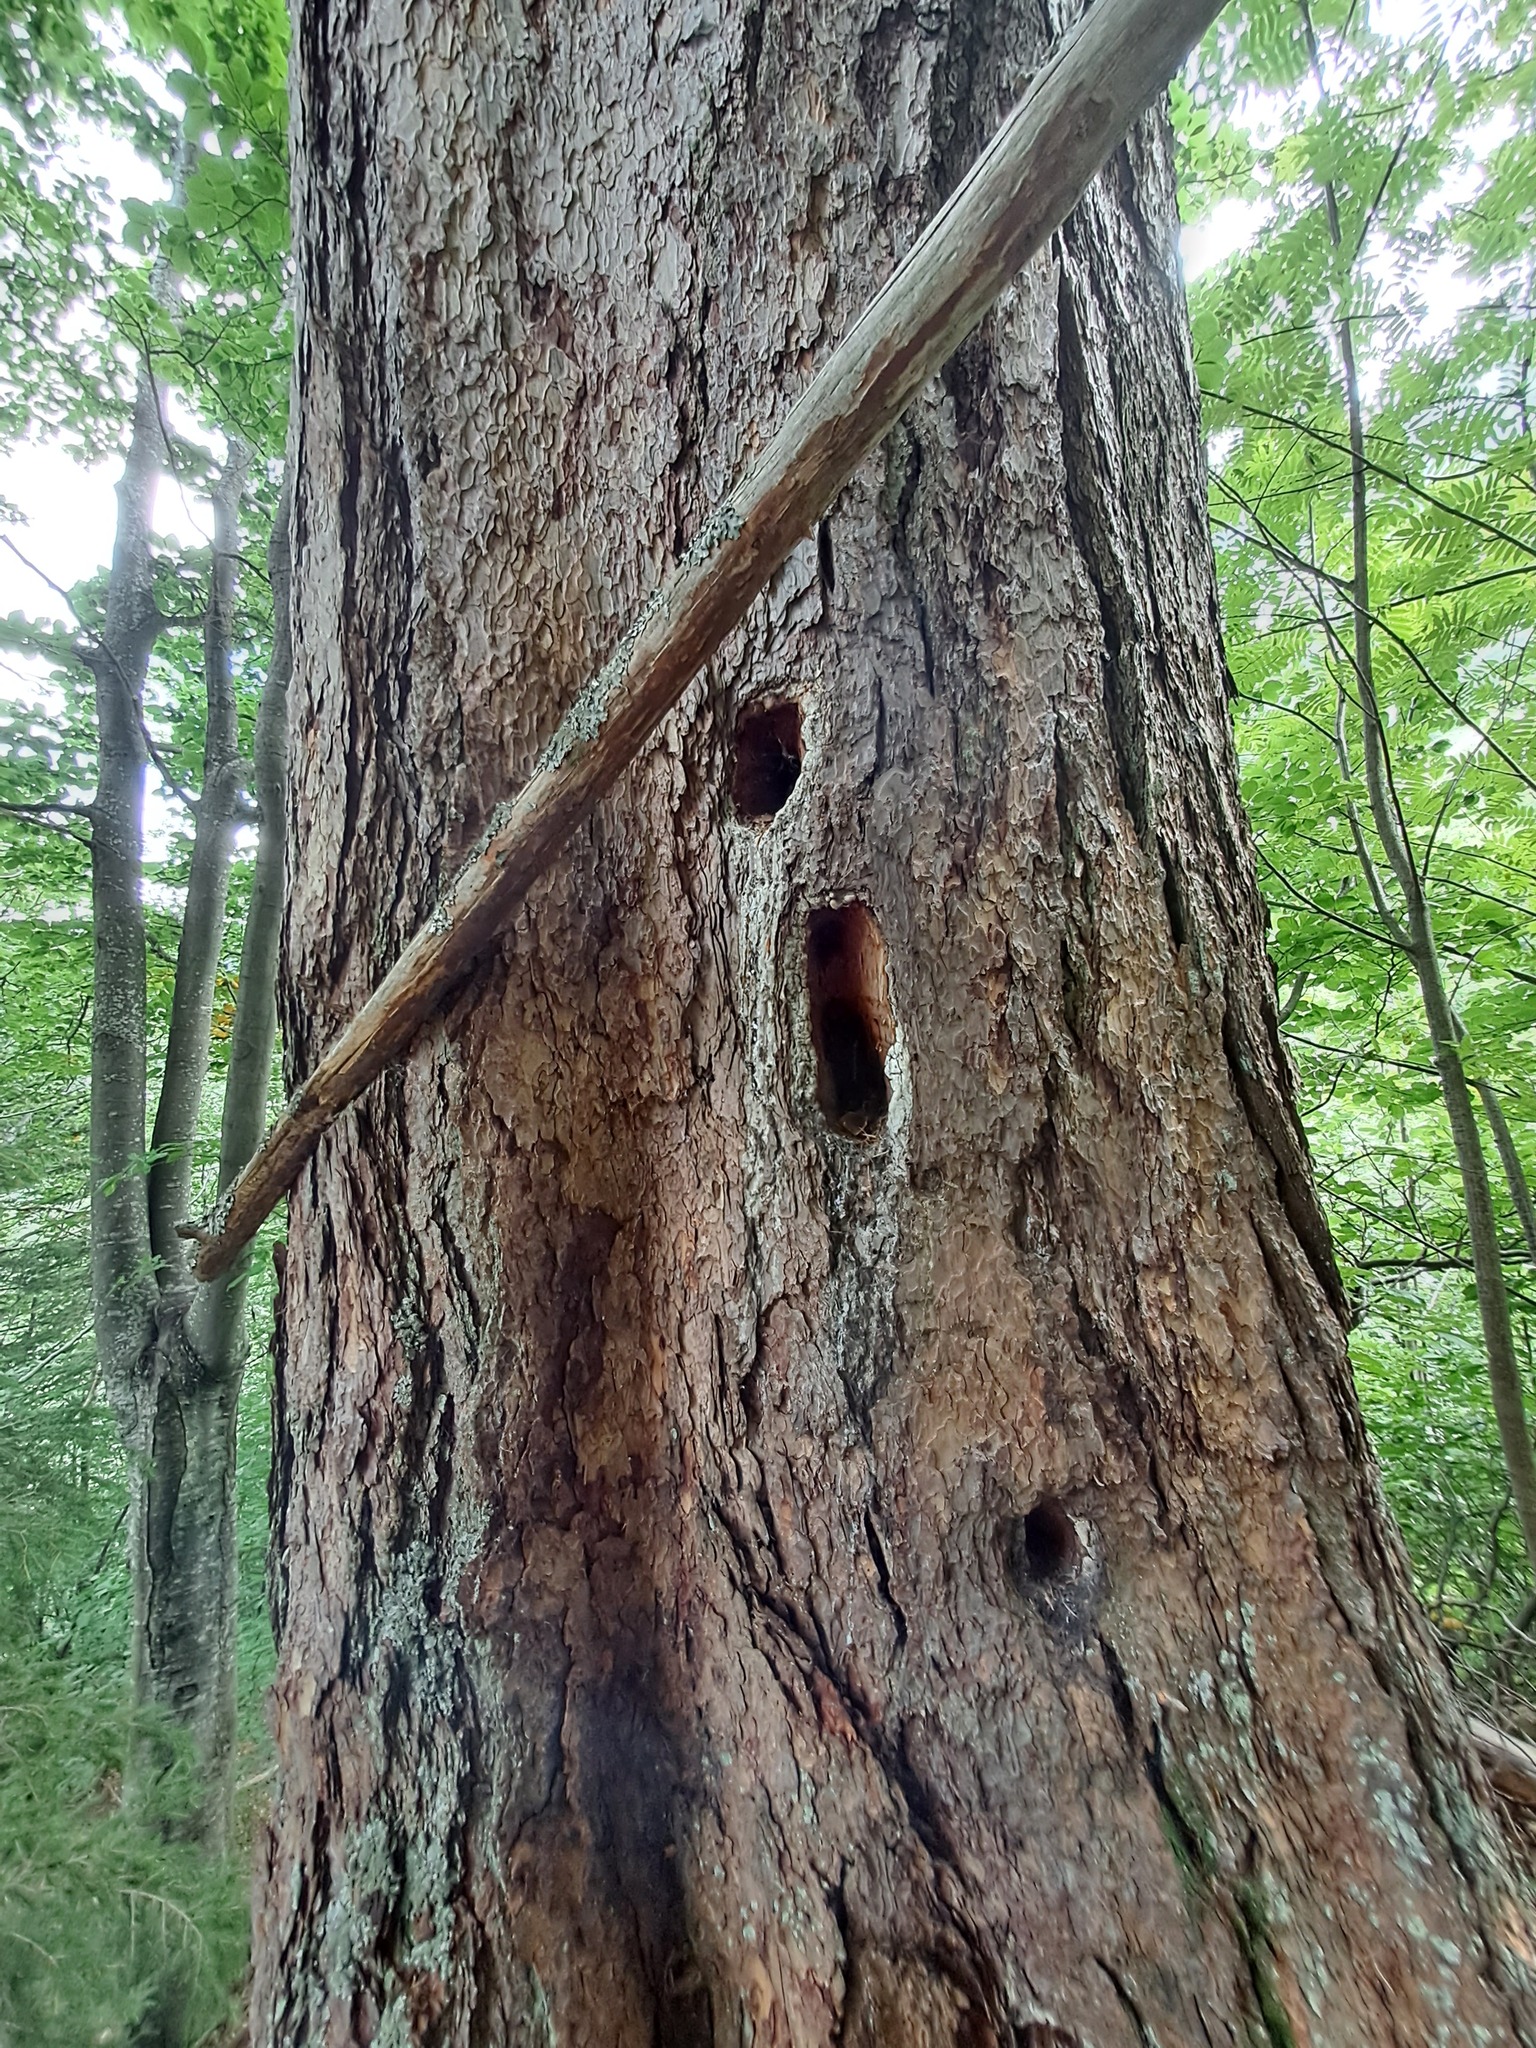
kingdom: Animalia
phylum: Chordata
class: Aves
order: Piciformes
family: Picidae
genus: Dryocopus
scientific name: Dryocopus martius
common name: Black woodpecker
